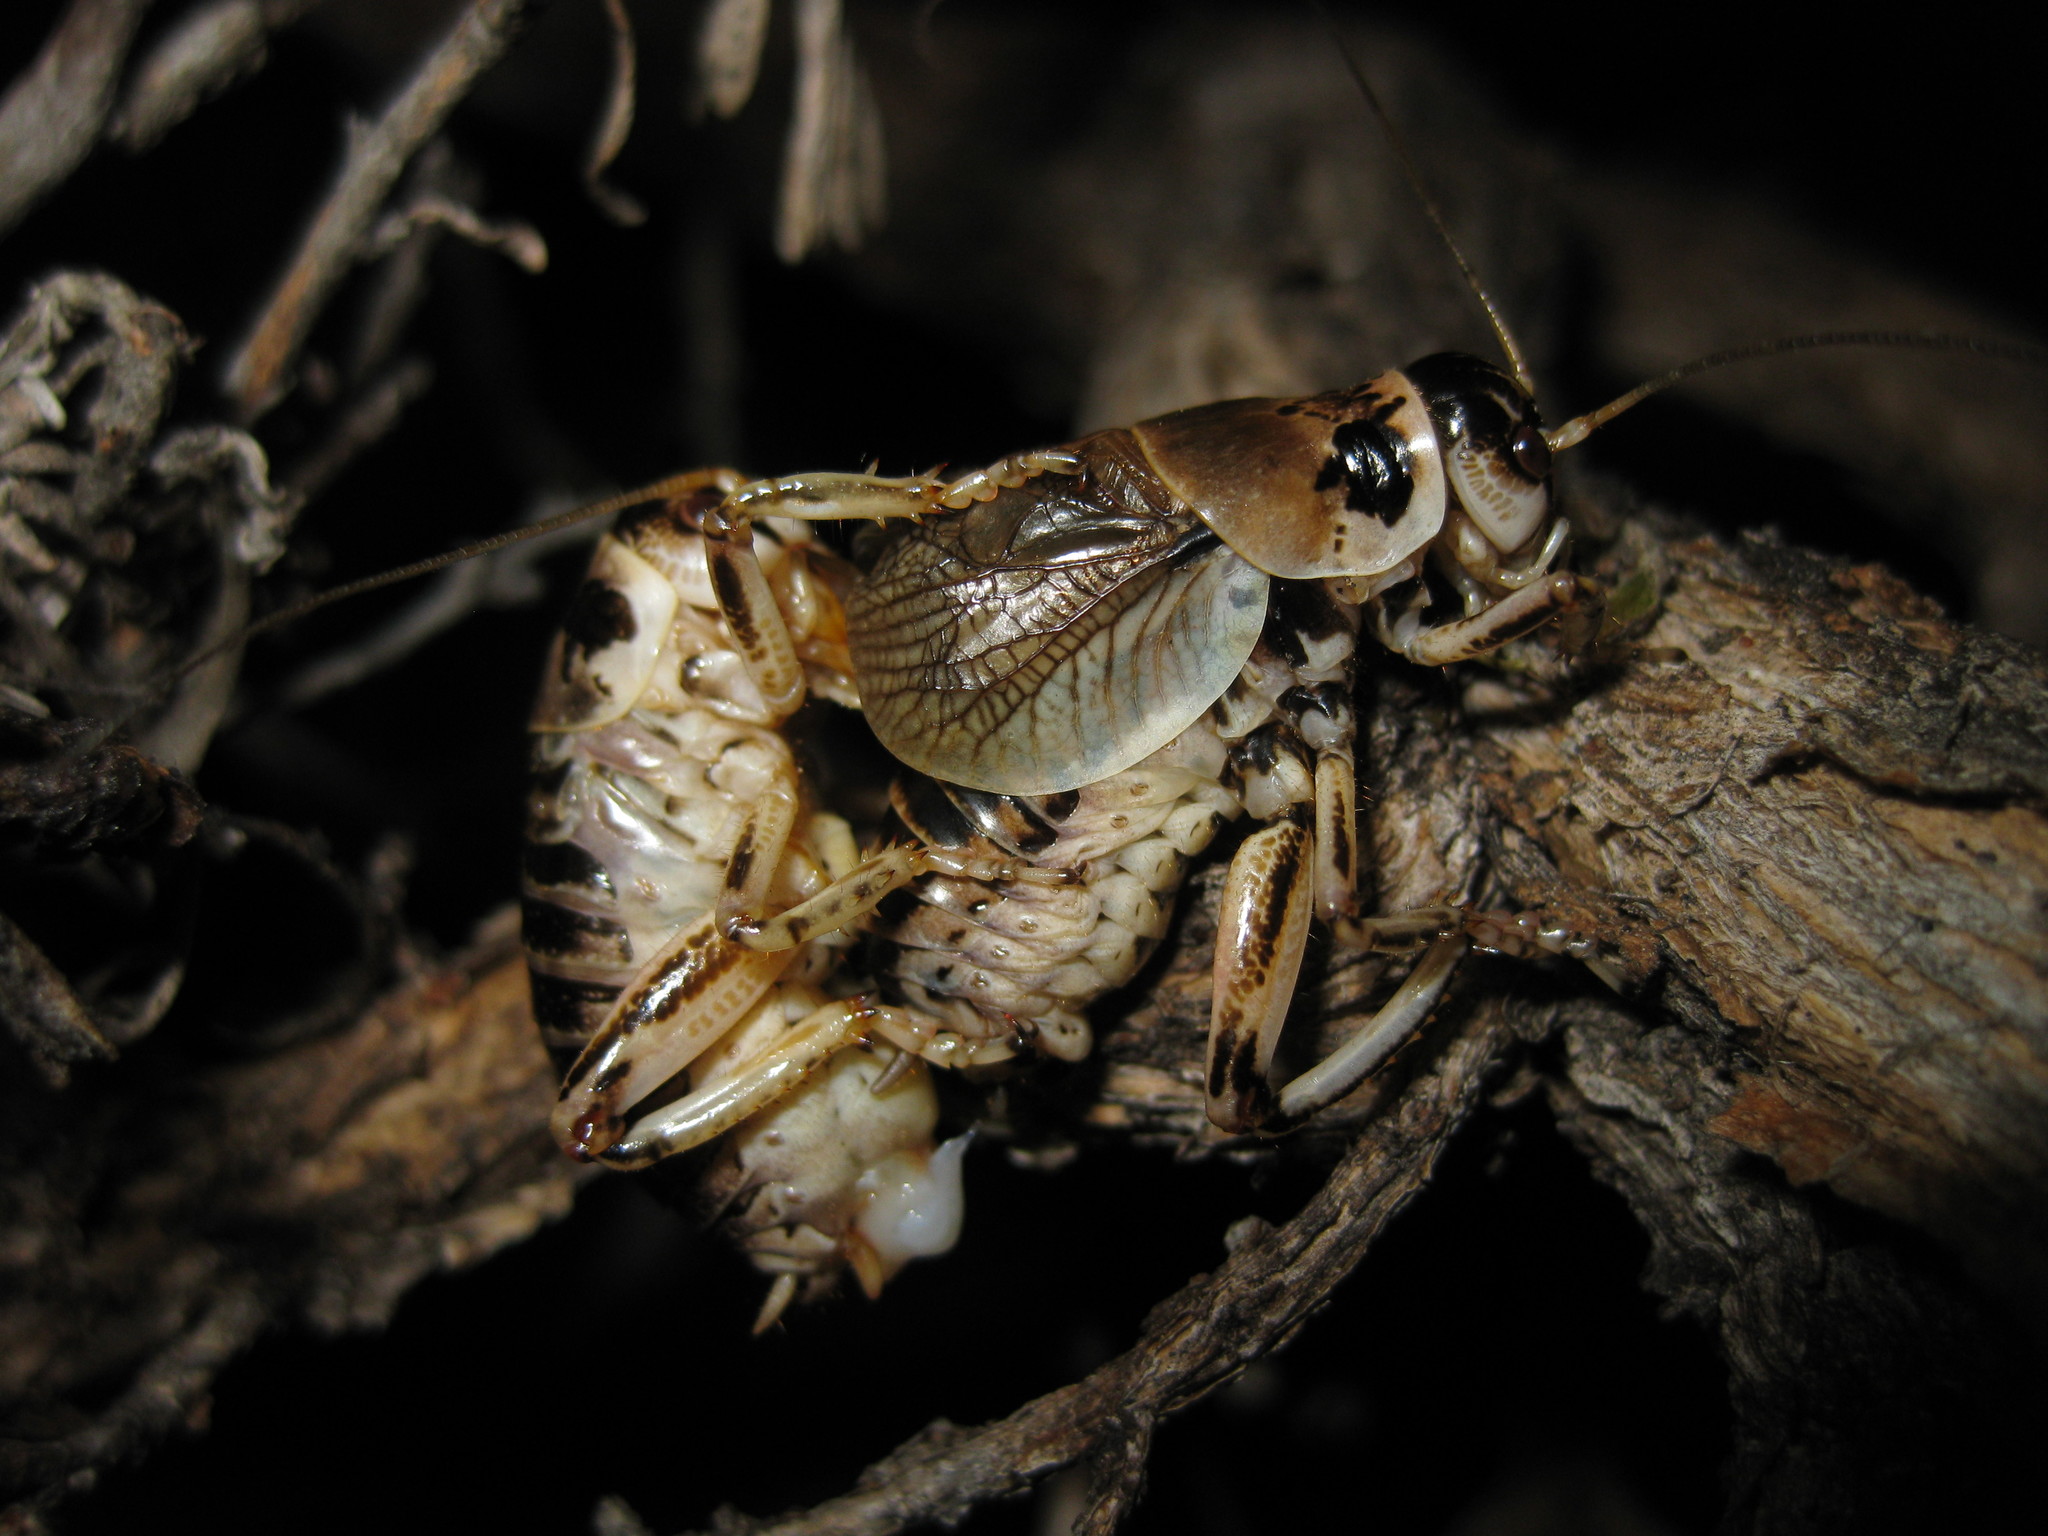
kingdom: Animalia
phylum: Arthropoda
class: Insecta
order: Orthoptera
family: Prophalangopsidae
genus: Cyphoderris
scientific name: Cyphoderris strepitans
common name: Sagebrush grig
